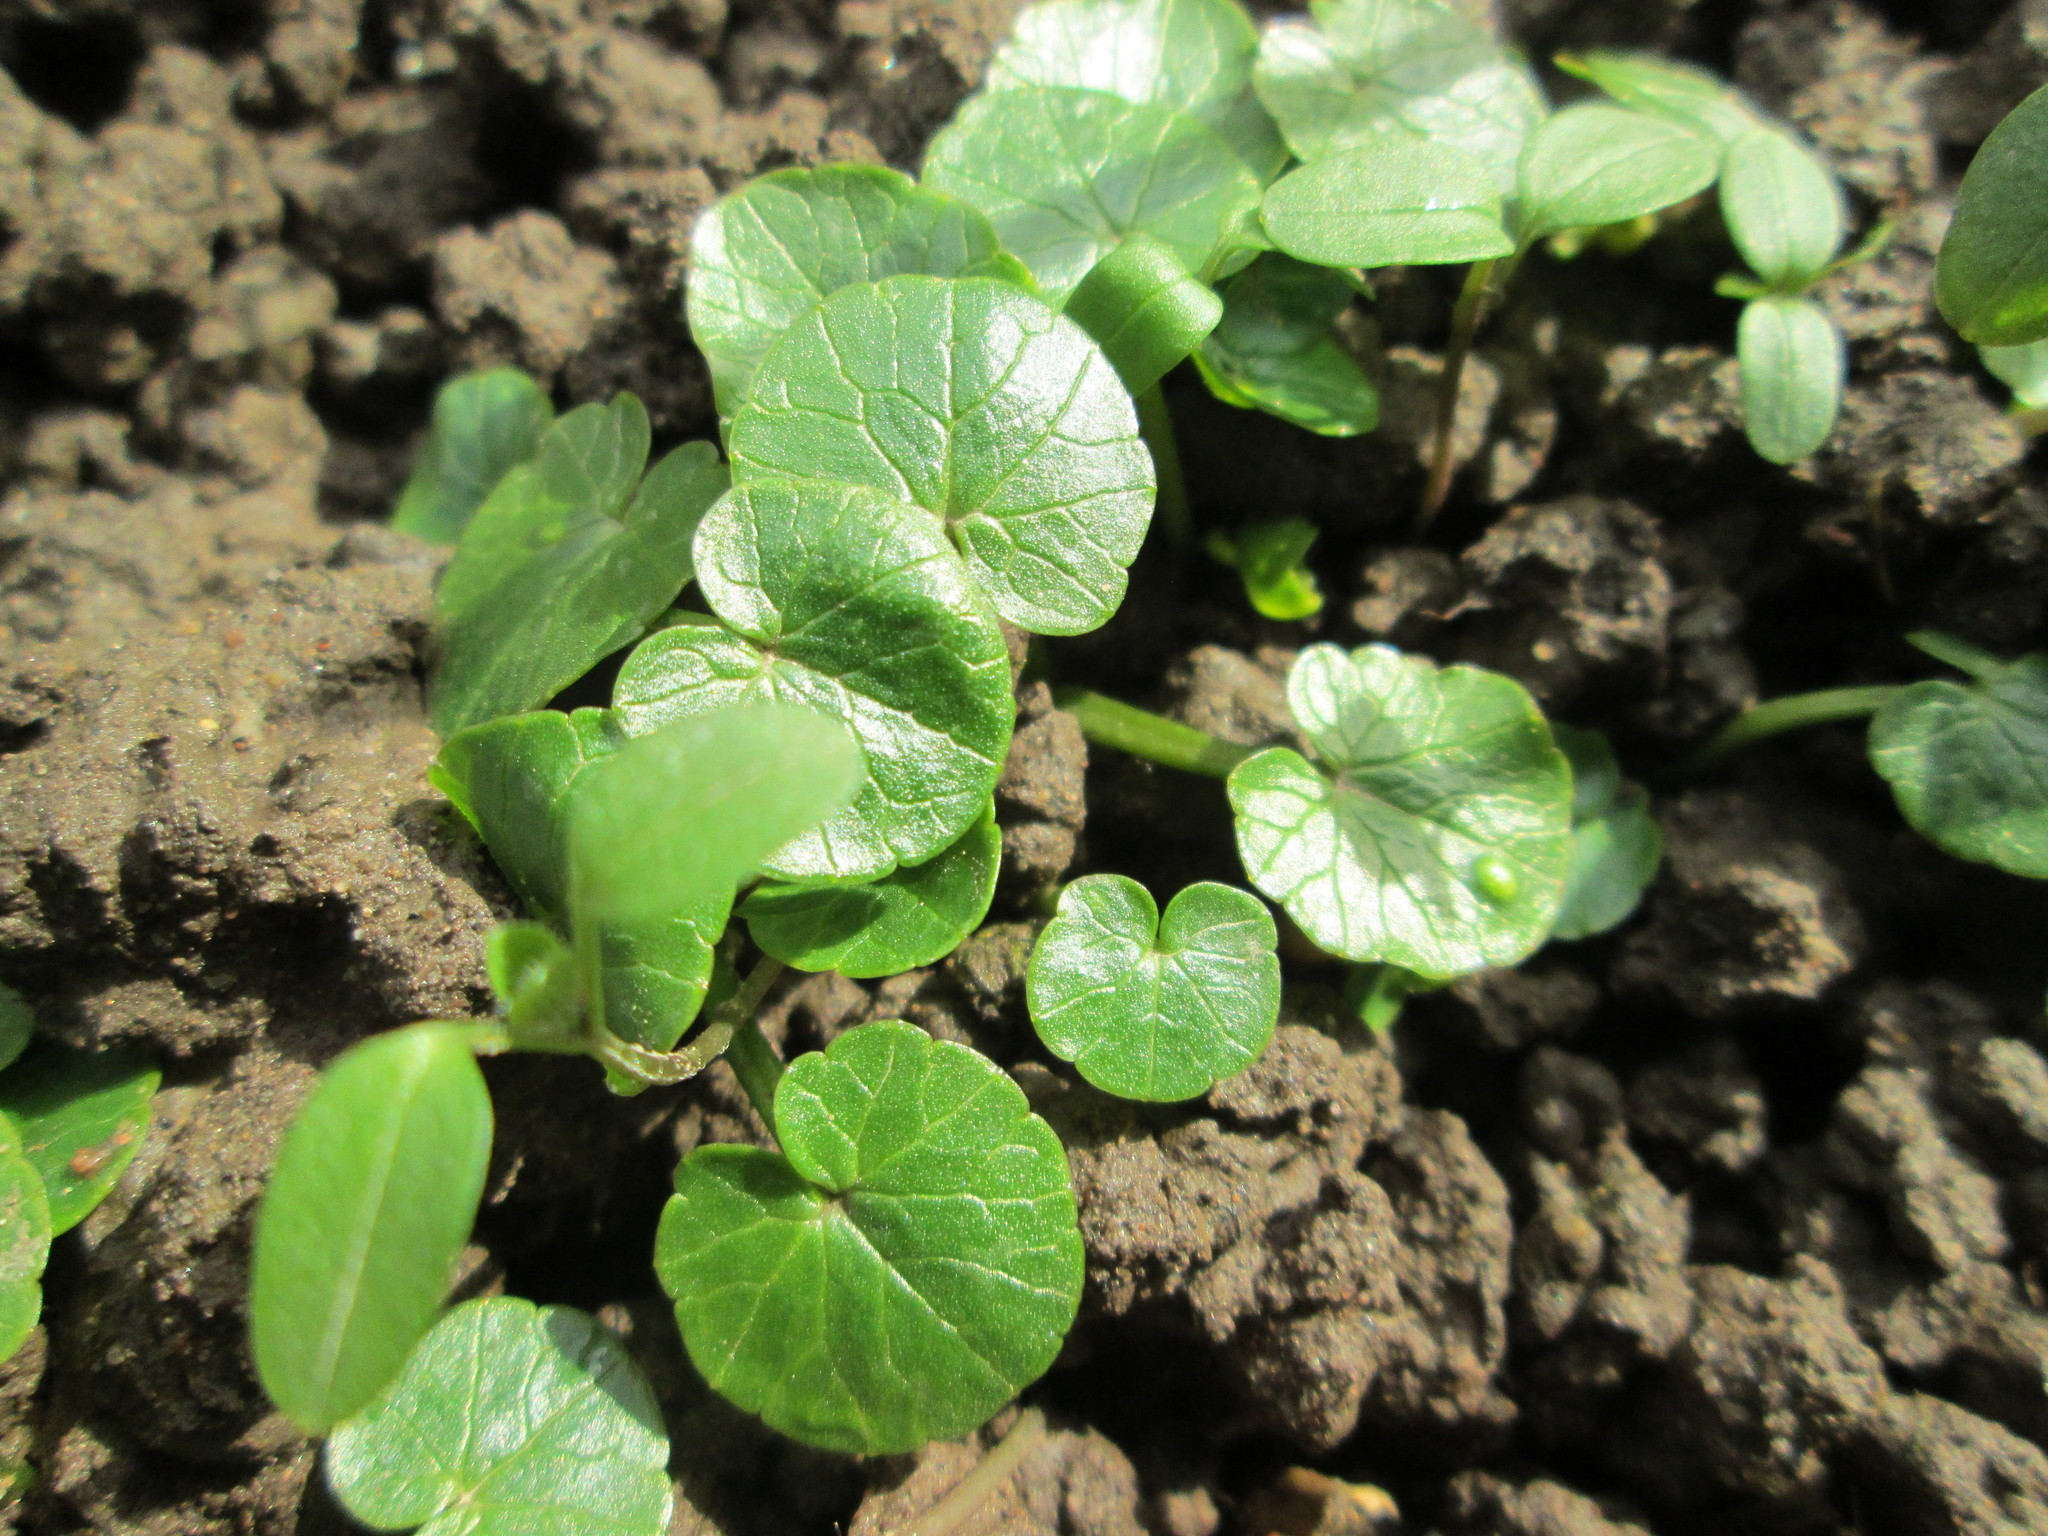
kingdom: Plantae
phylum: Tracheophyta
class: Magnoliopsida
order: Ranunculales
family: Ranunculaceae
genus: Ficaria
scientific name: Ficaria verna
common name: Lesser celandine
